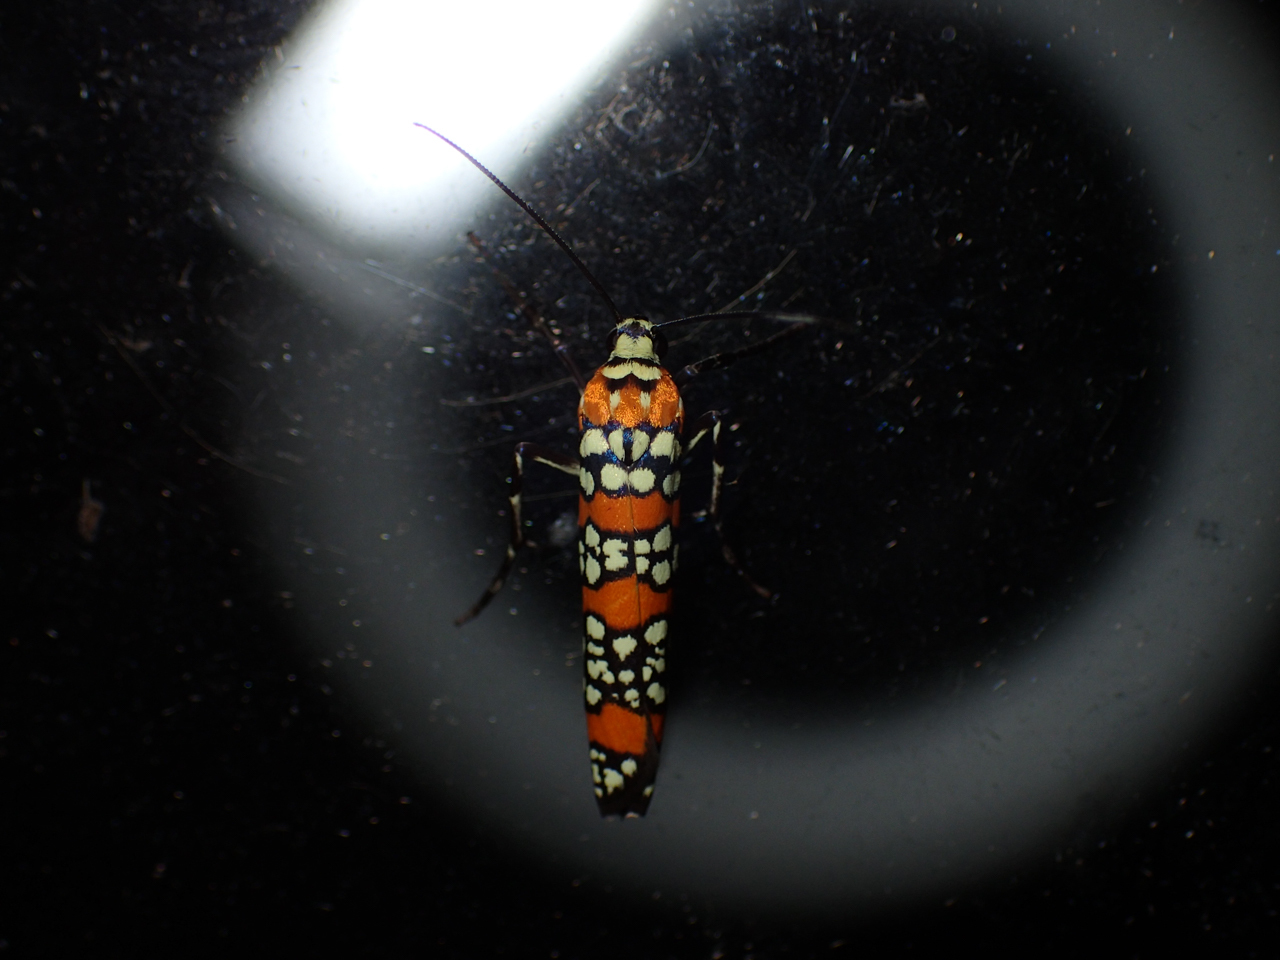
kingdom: Animalia
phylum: Arthropoda
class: Insecta
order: Lepidoptera
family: Attevidae
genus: Atteva
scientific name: Atteva punctella
